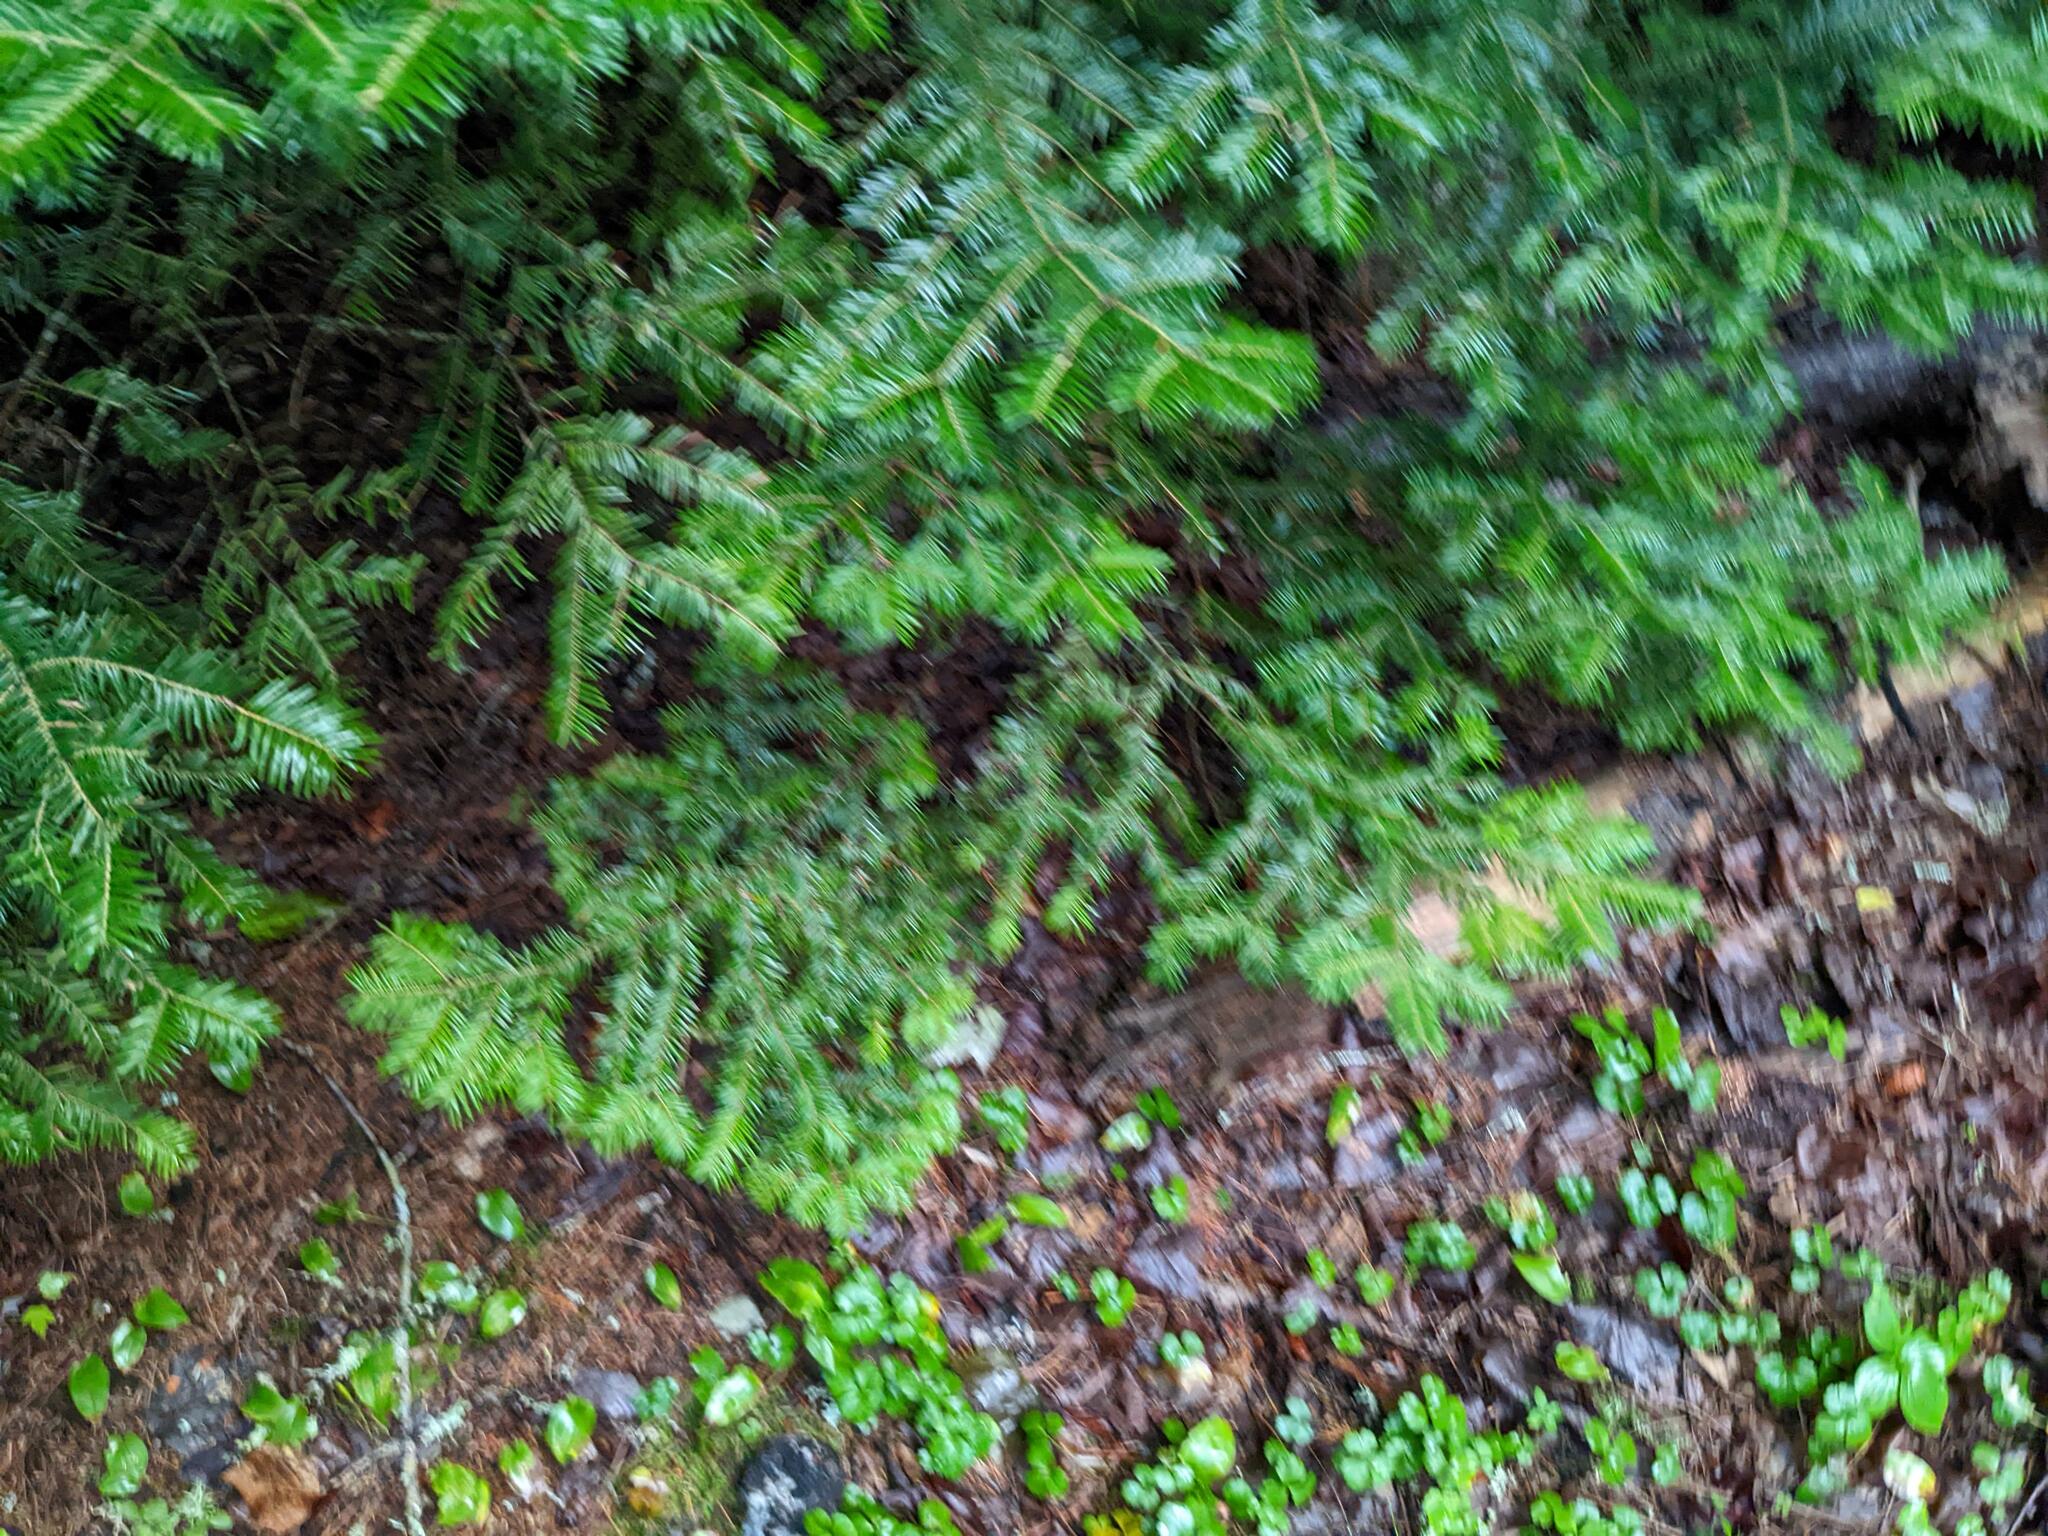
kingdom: Plantae
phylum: Tracheophyta
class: Pinopsida
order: Pinales
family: Pinaceae
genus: Abies
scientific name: Abies balsamea
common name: Balsam fir
